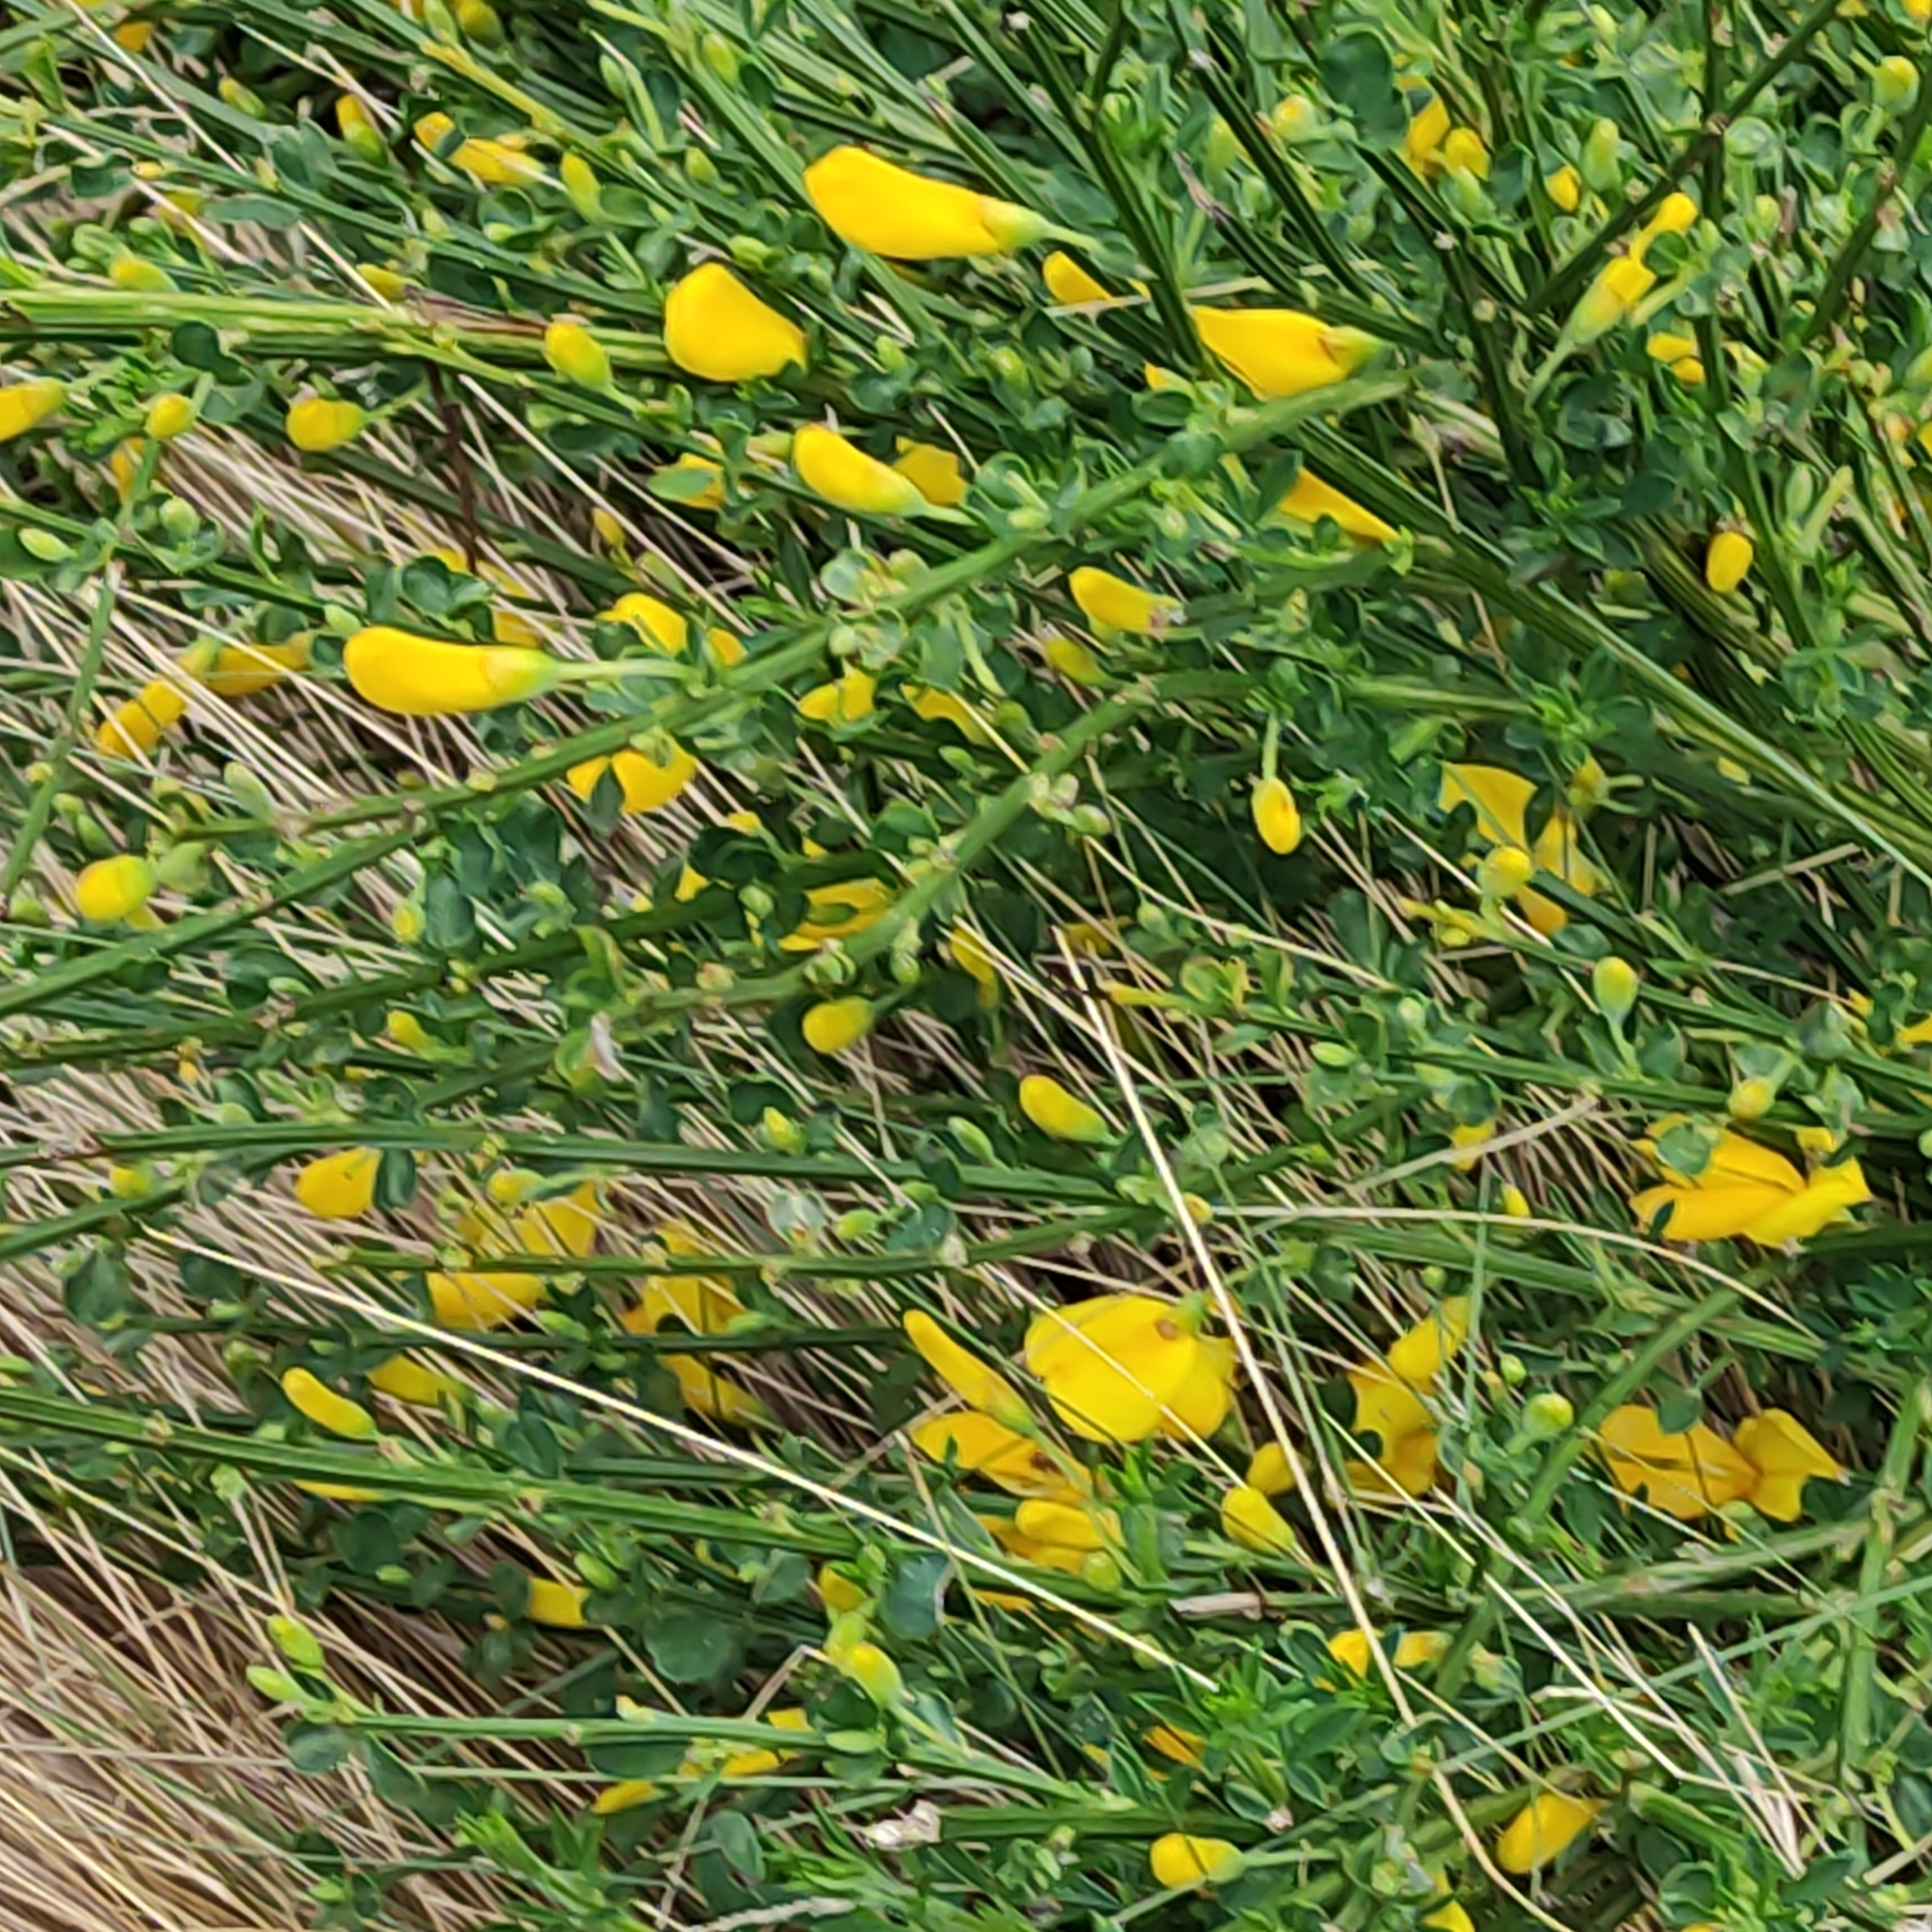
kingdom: Plantae
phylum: Tracheophyta
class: Magnoliopsida
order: Fabales
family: Fabaceae
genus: Cytisus
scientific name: Cytisus scoparius
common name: Scotch broom
